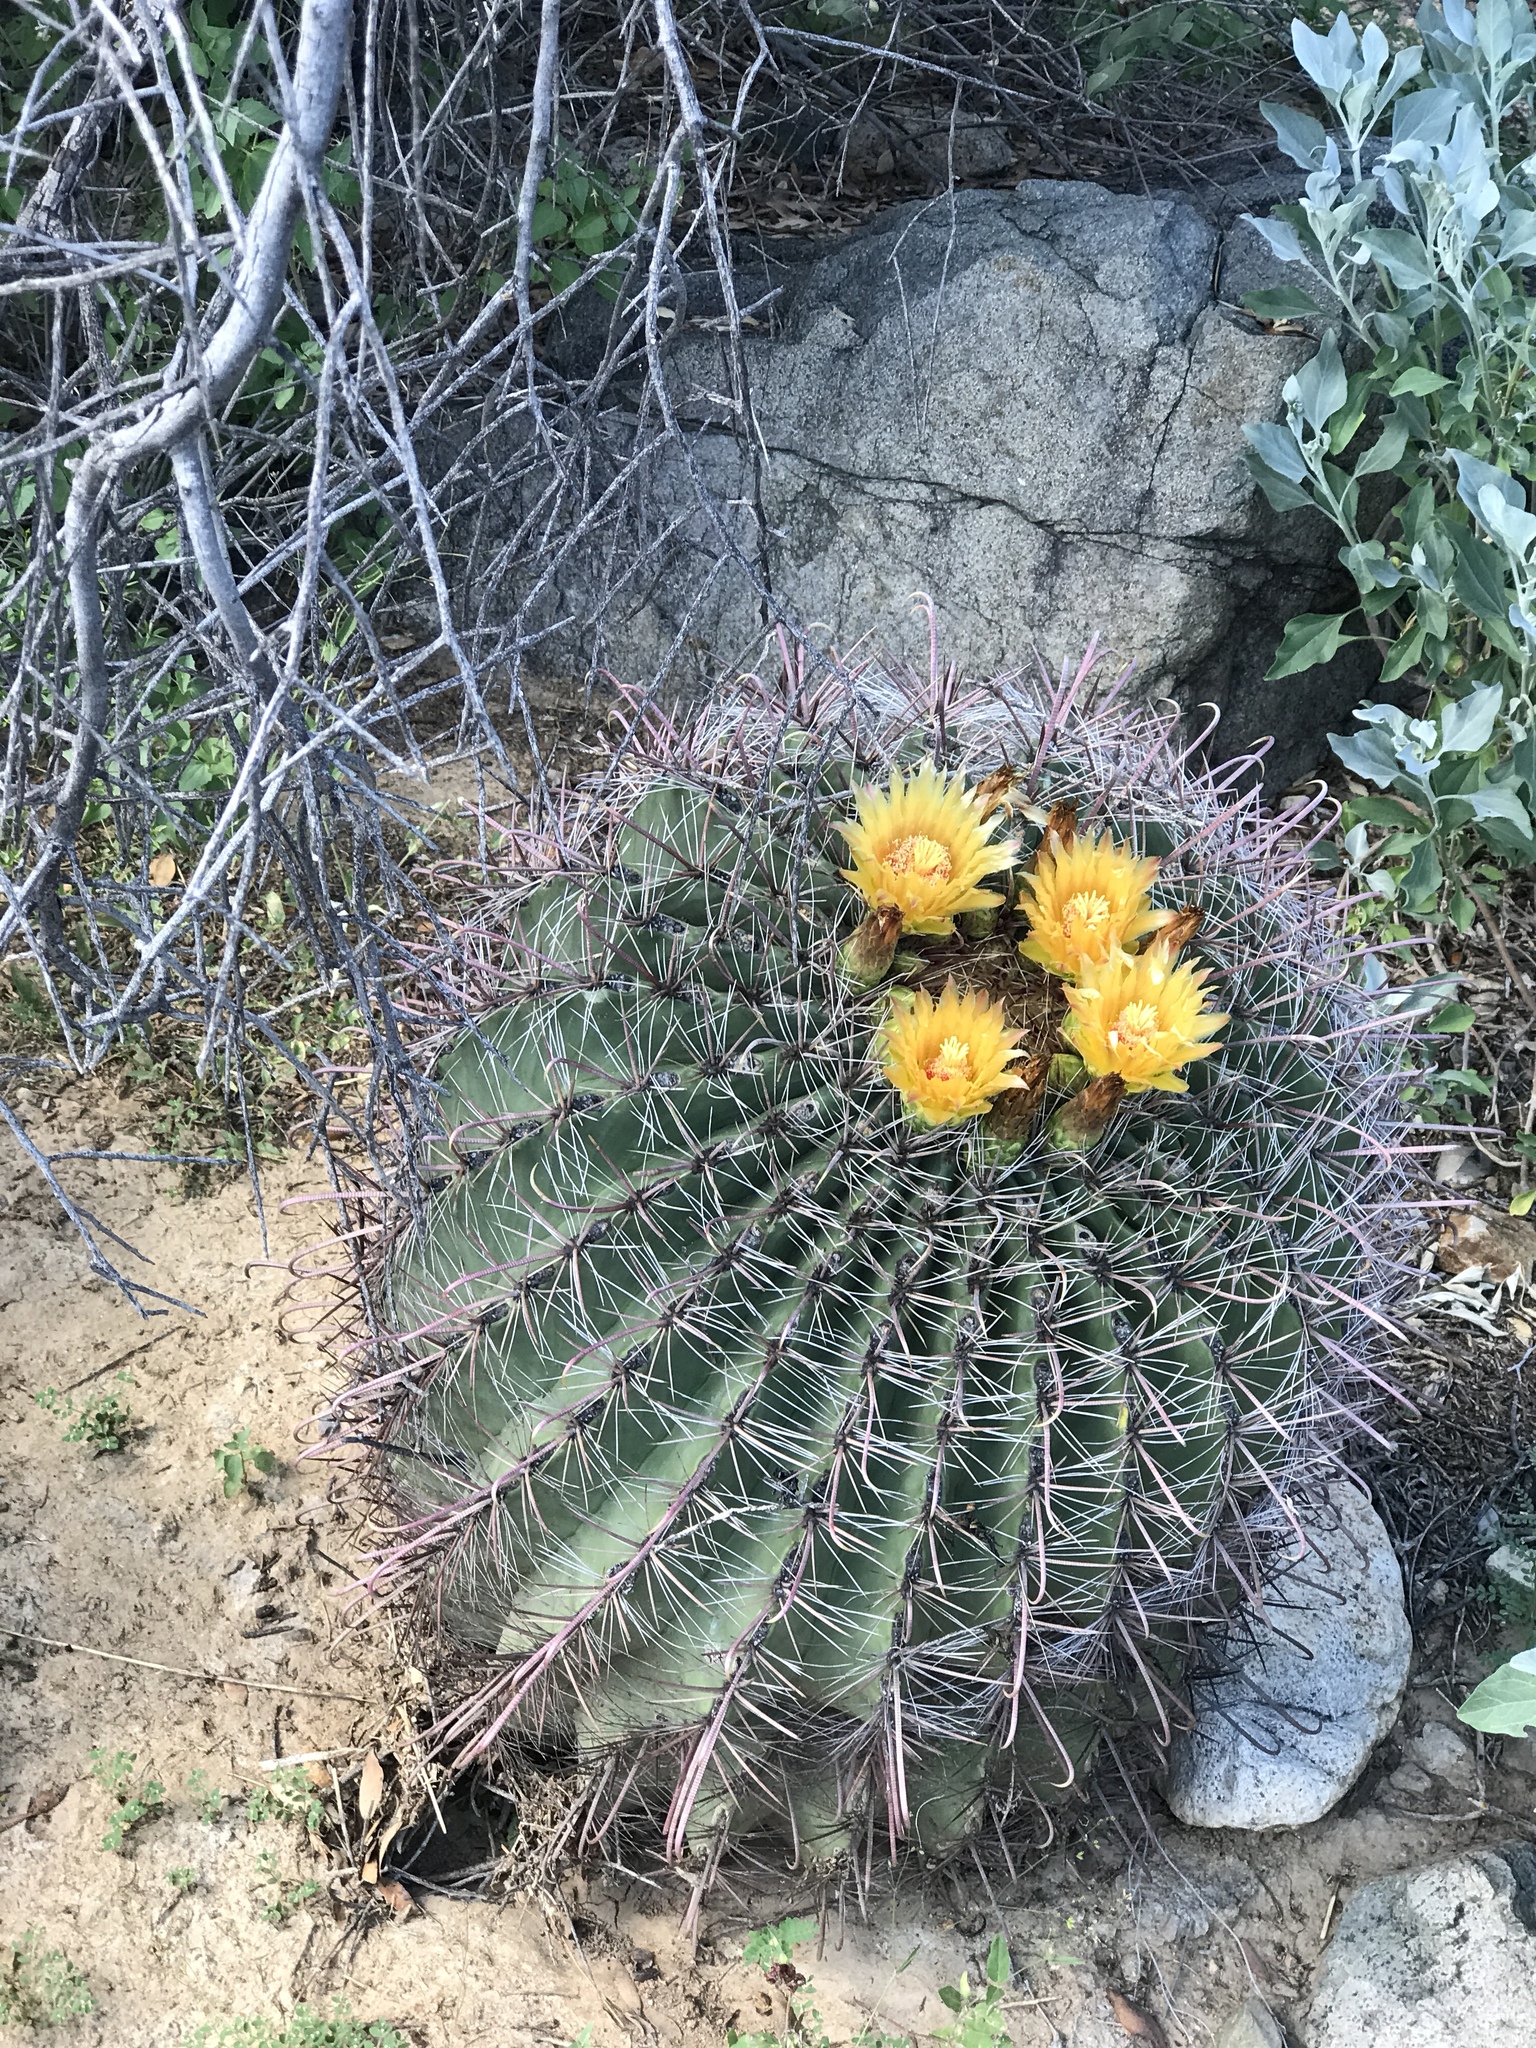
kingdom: Plantae
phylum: Tracheophyta
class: Magnoliopsida
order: Caryophyllales
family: Cactaceae
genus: Ferocactus
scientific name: Ferocactus wislizeni
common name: Candy barrel cactus
